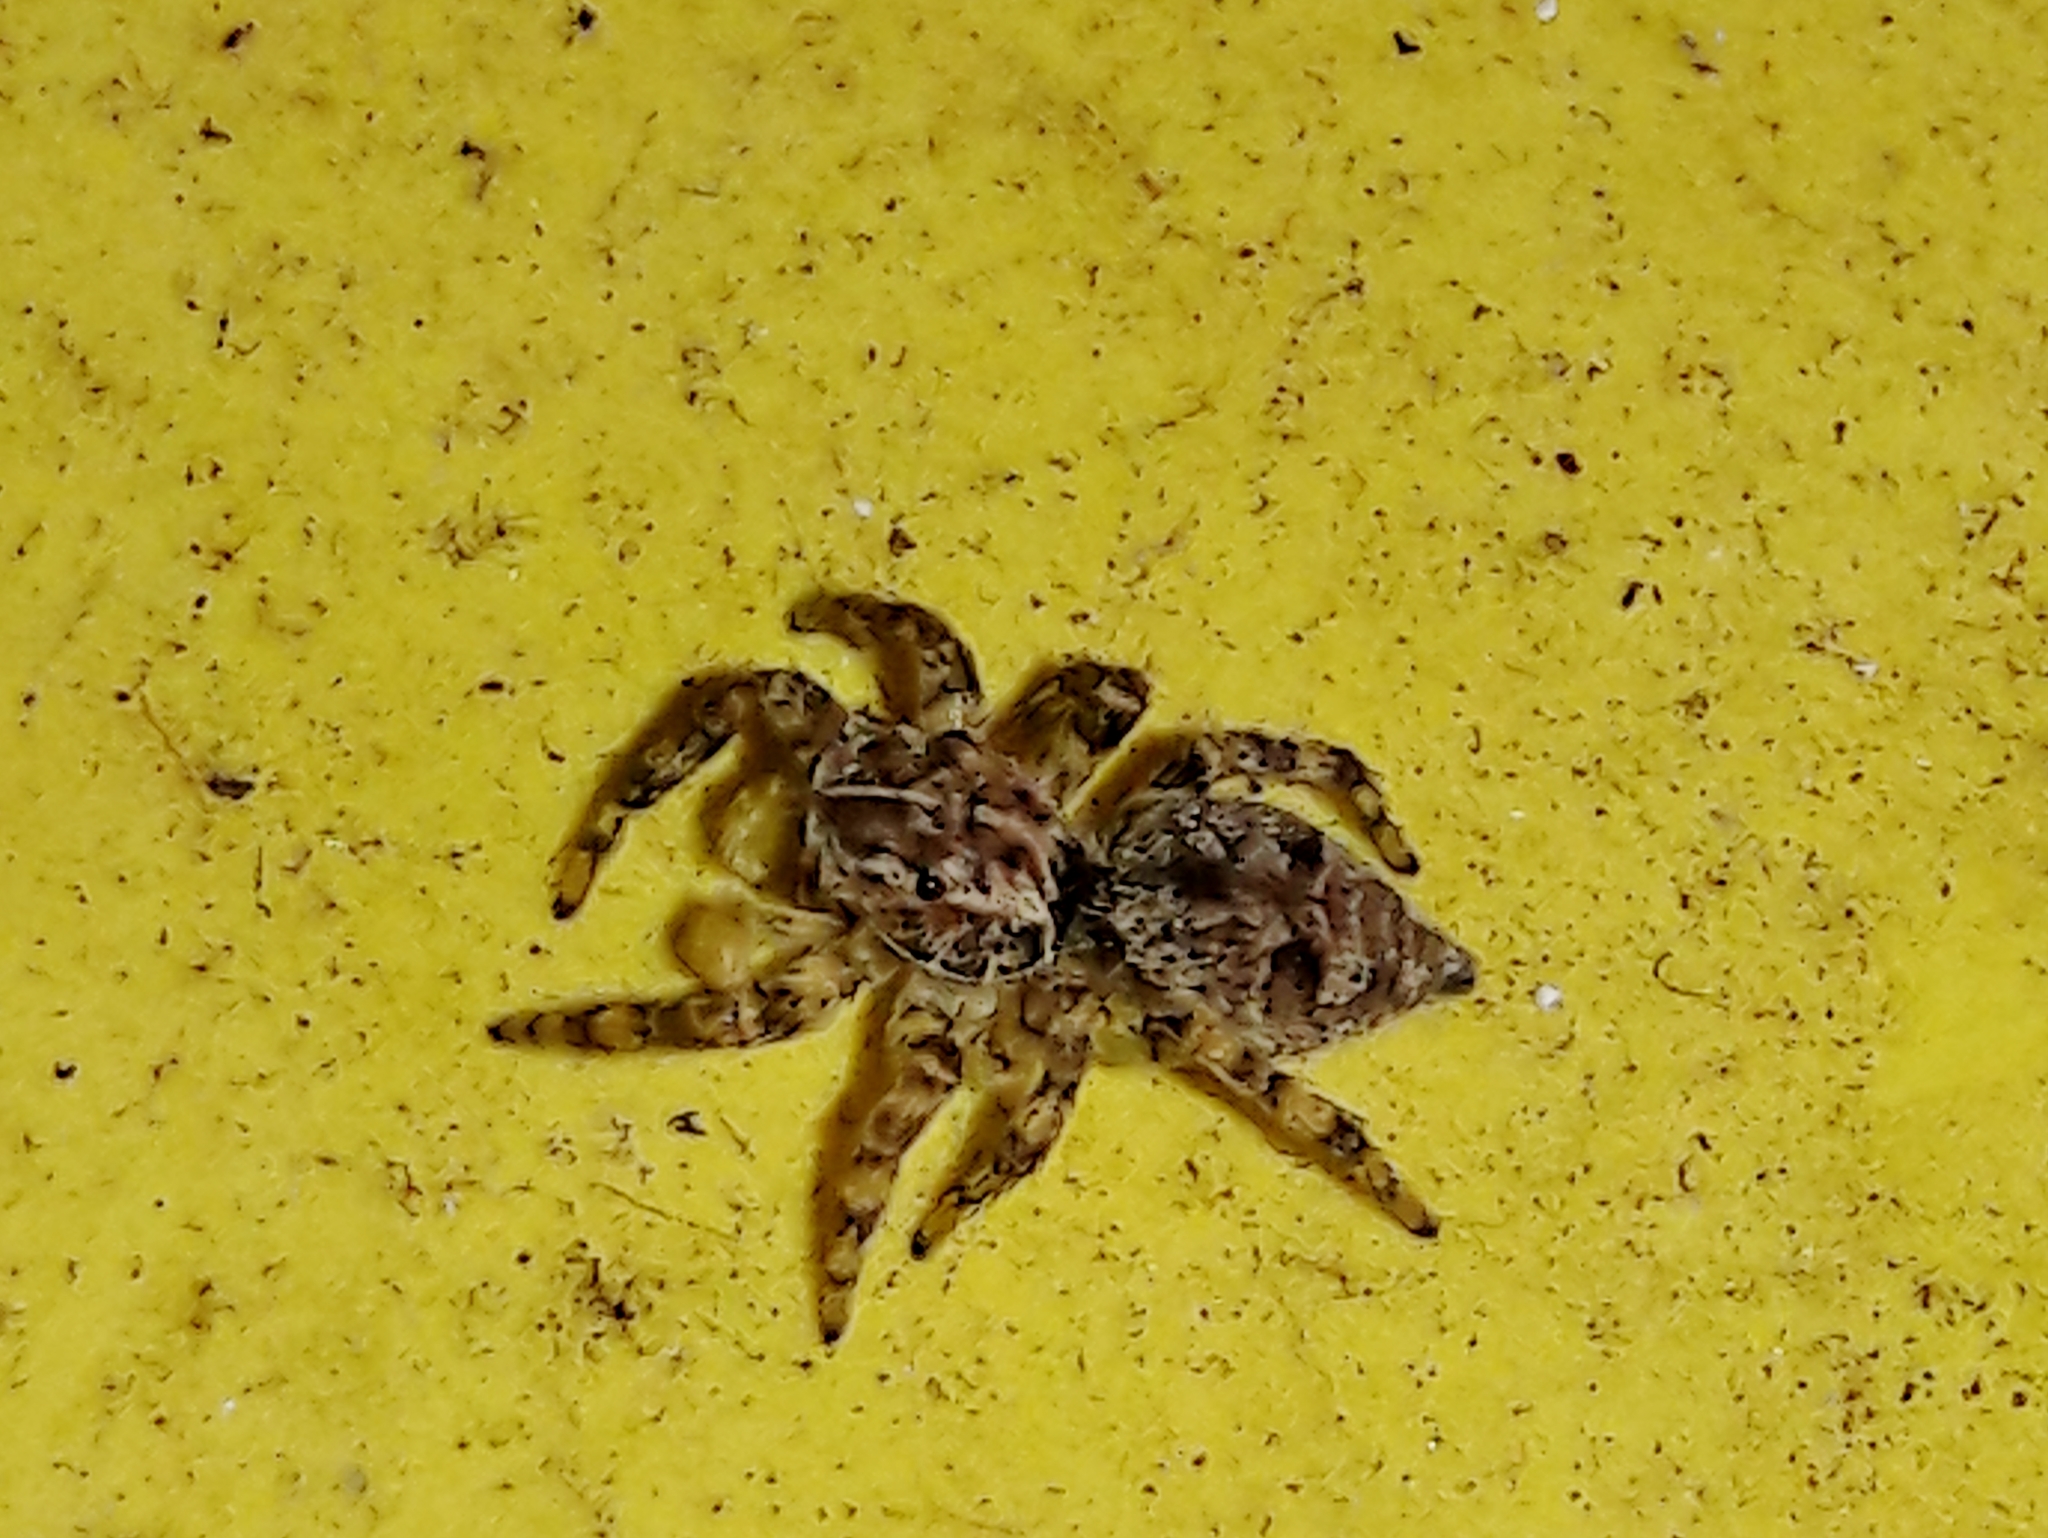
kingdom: Animalia
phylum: Arthropoda
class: Arachnida
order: Araneae
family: Salticidae
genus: Sumampattus
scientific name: Sumampattus quinqueradiatus
